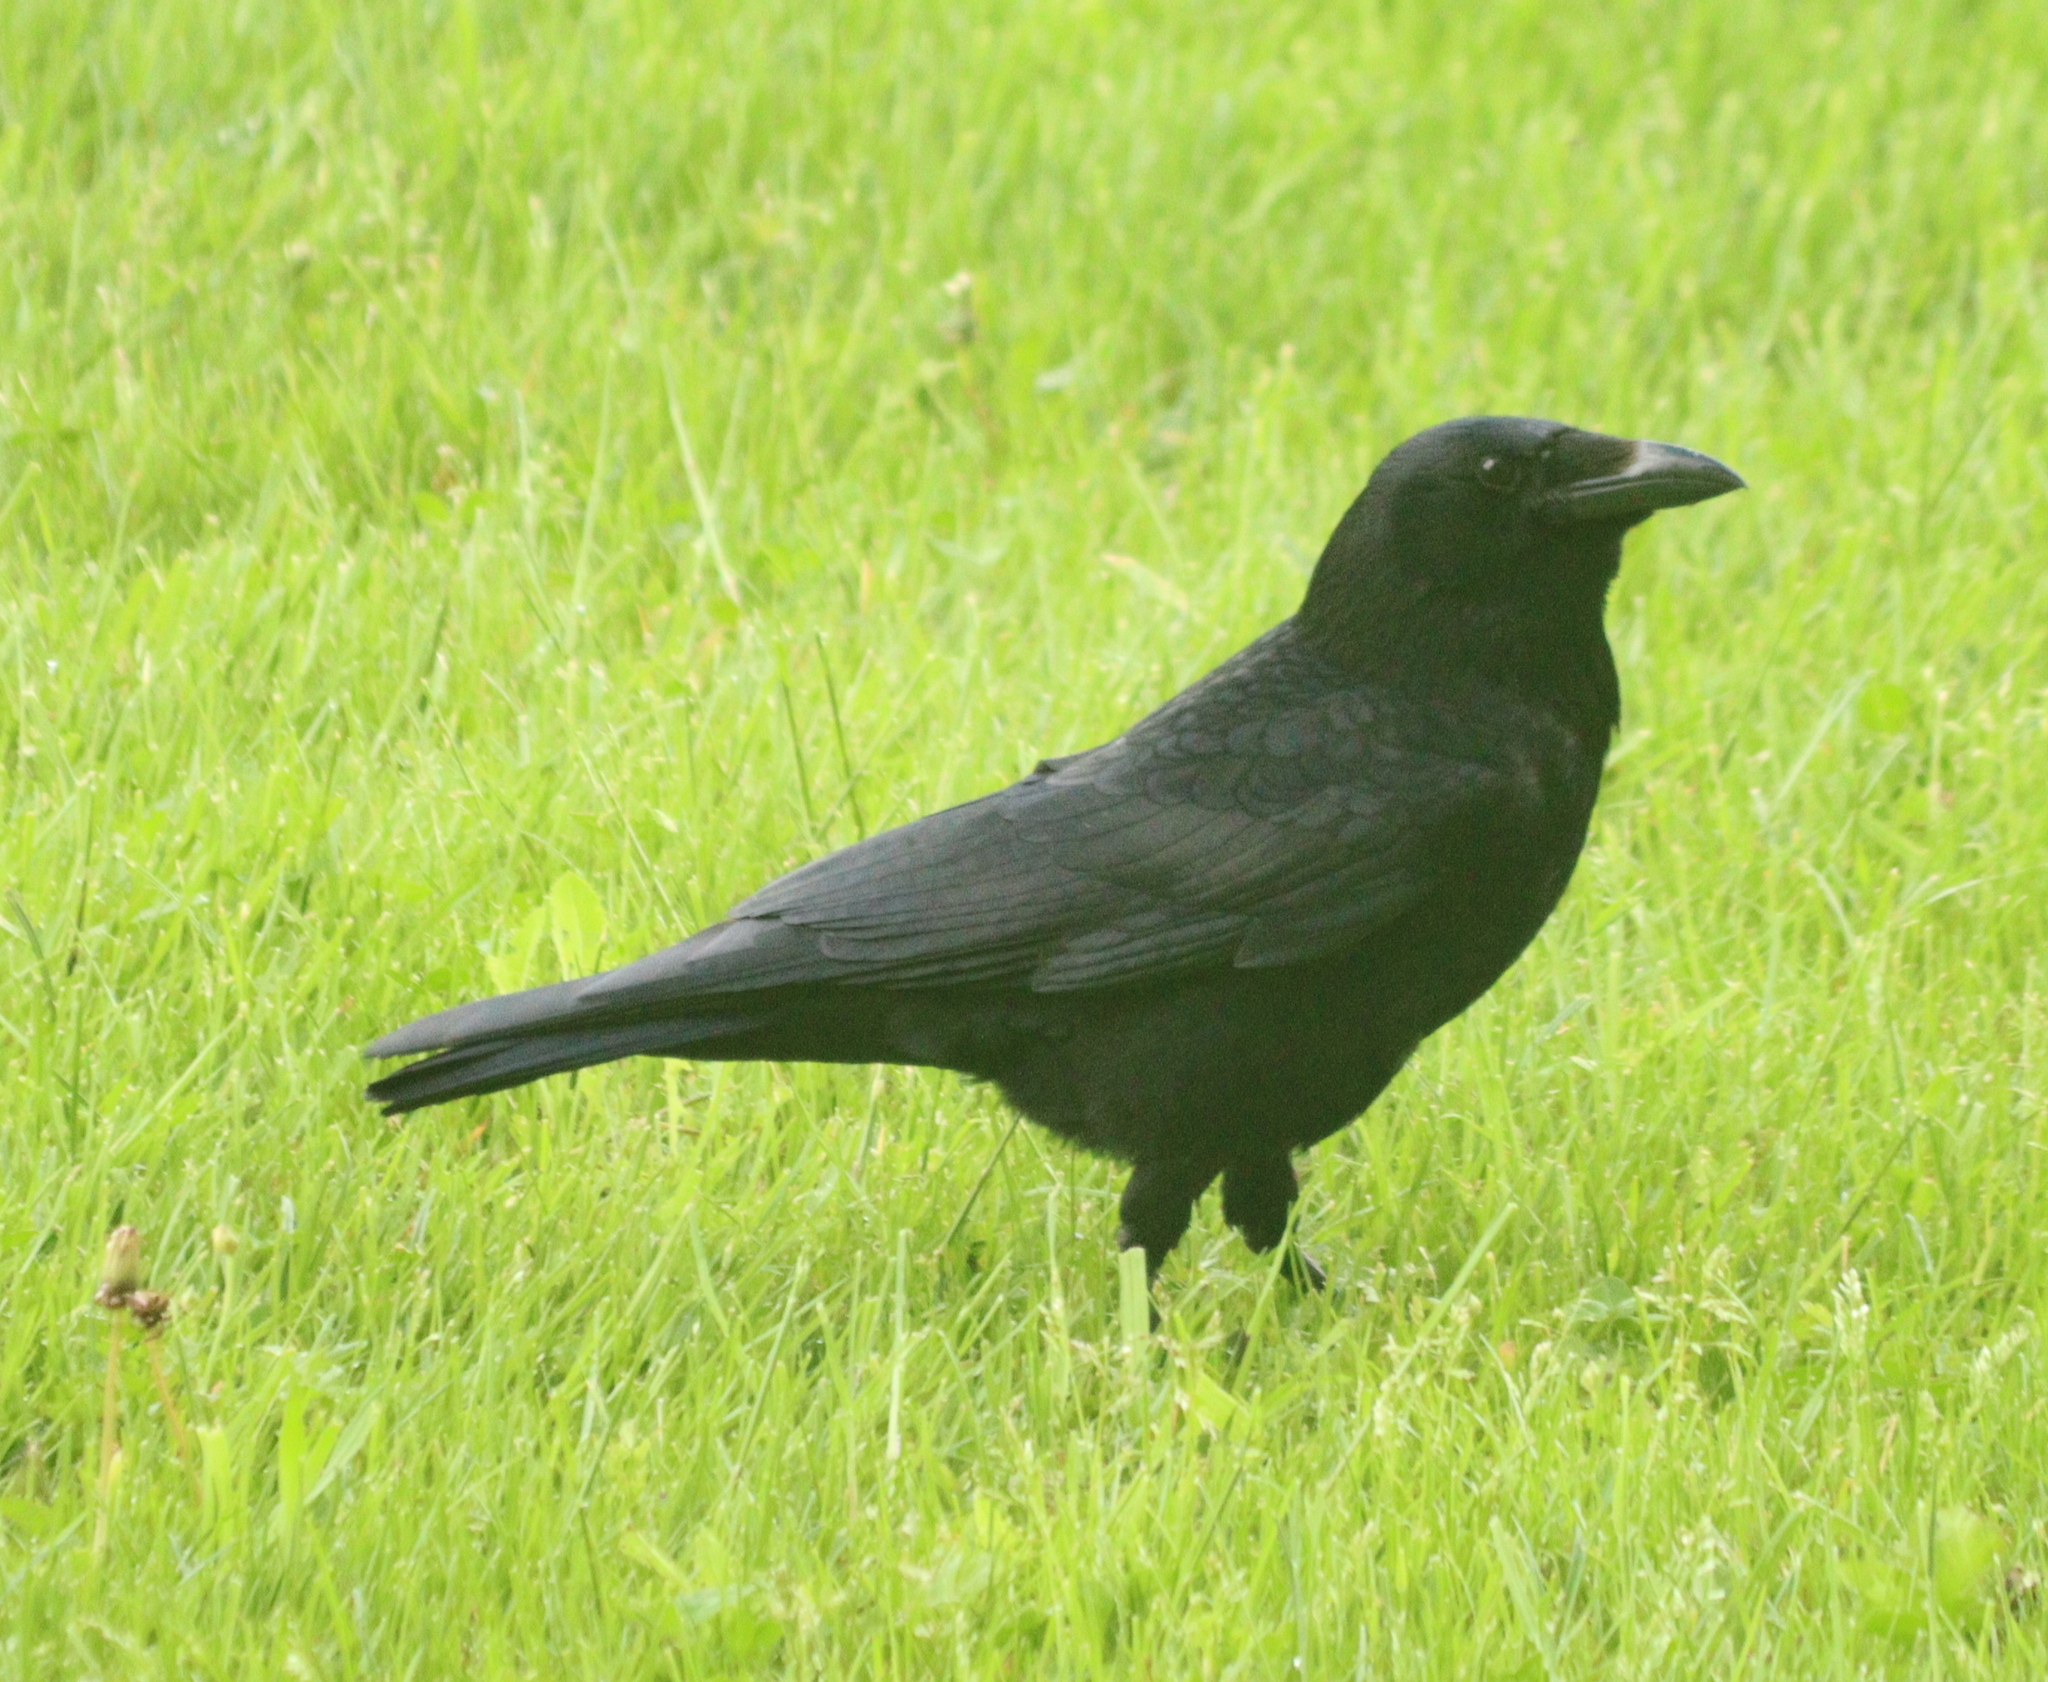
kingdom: Animalia
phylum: Chordata
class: Aves
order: Passeriformes
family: Corvidae
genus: Corvus
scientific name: Corvus corone
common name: Carrion crow
